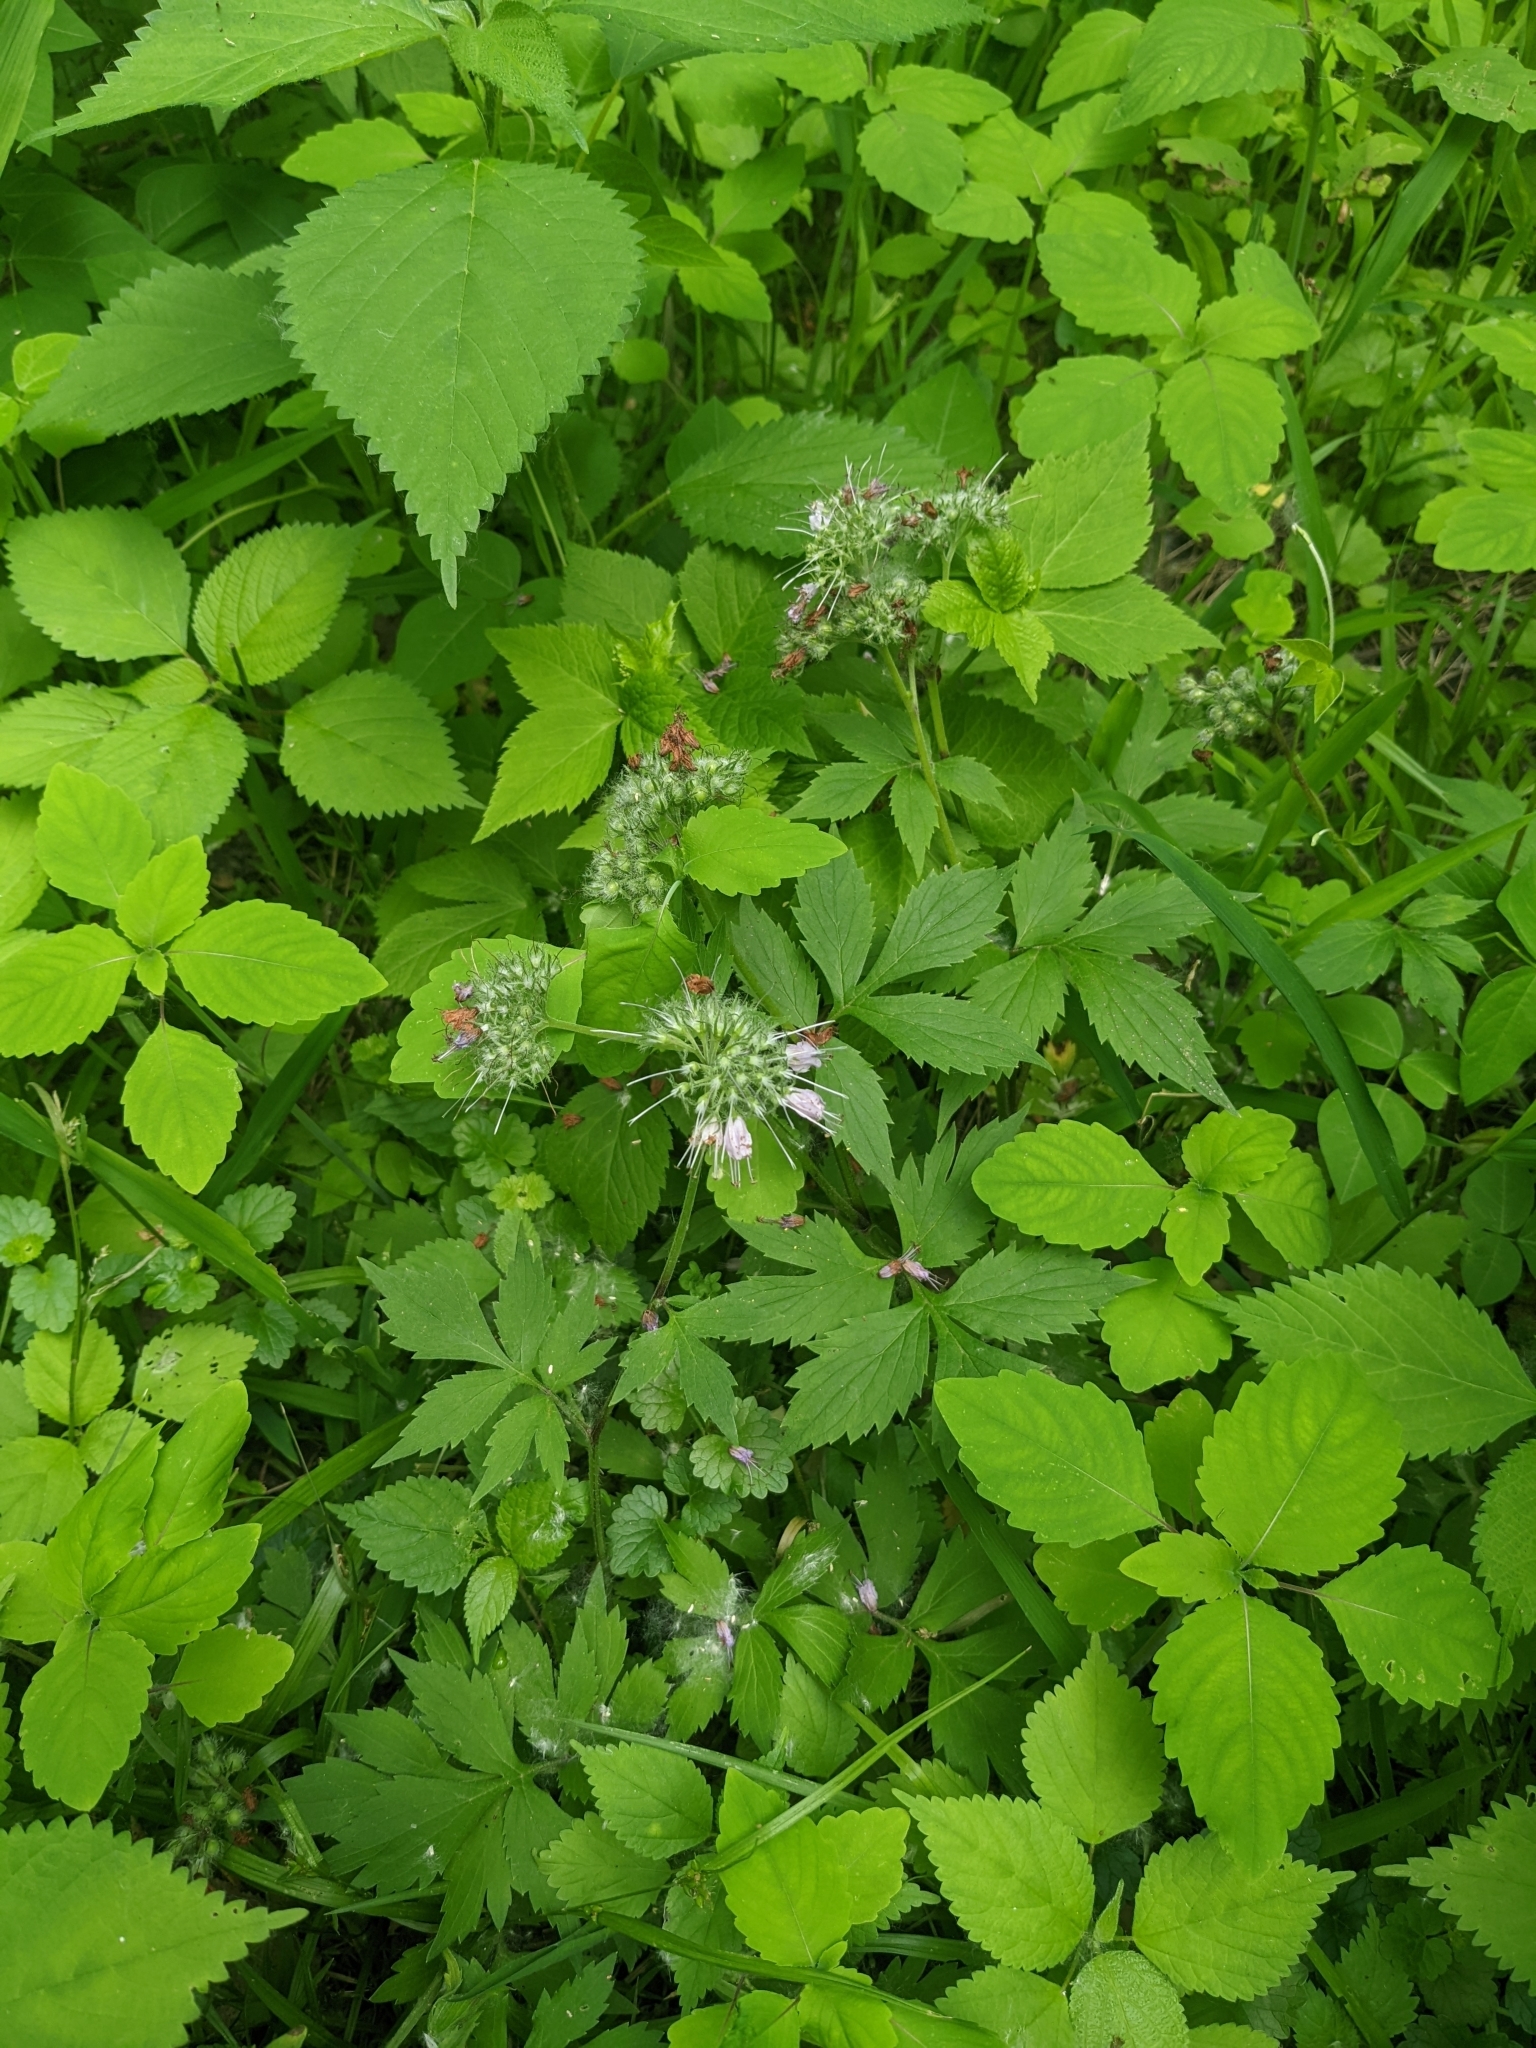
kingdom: Plantae
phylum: Tracheophyta
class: Magnoliopsida
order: Boraginales
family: Hydrophyllaceae
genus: Hydrophyllum
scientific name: Hydrophyllum virginianum
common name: Virginia waterleaf
